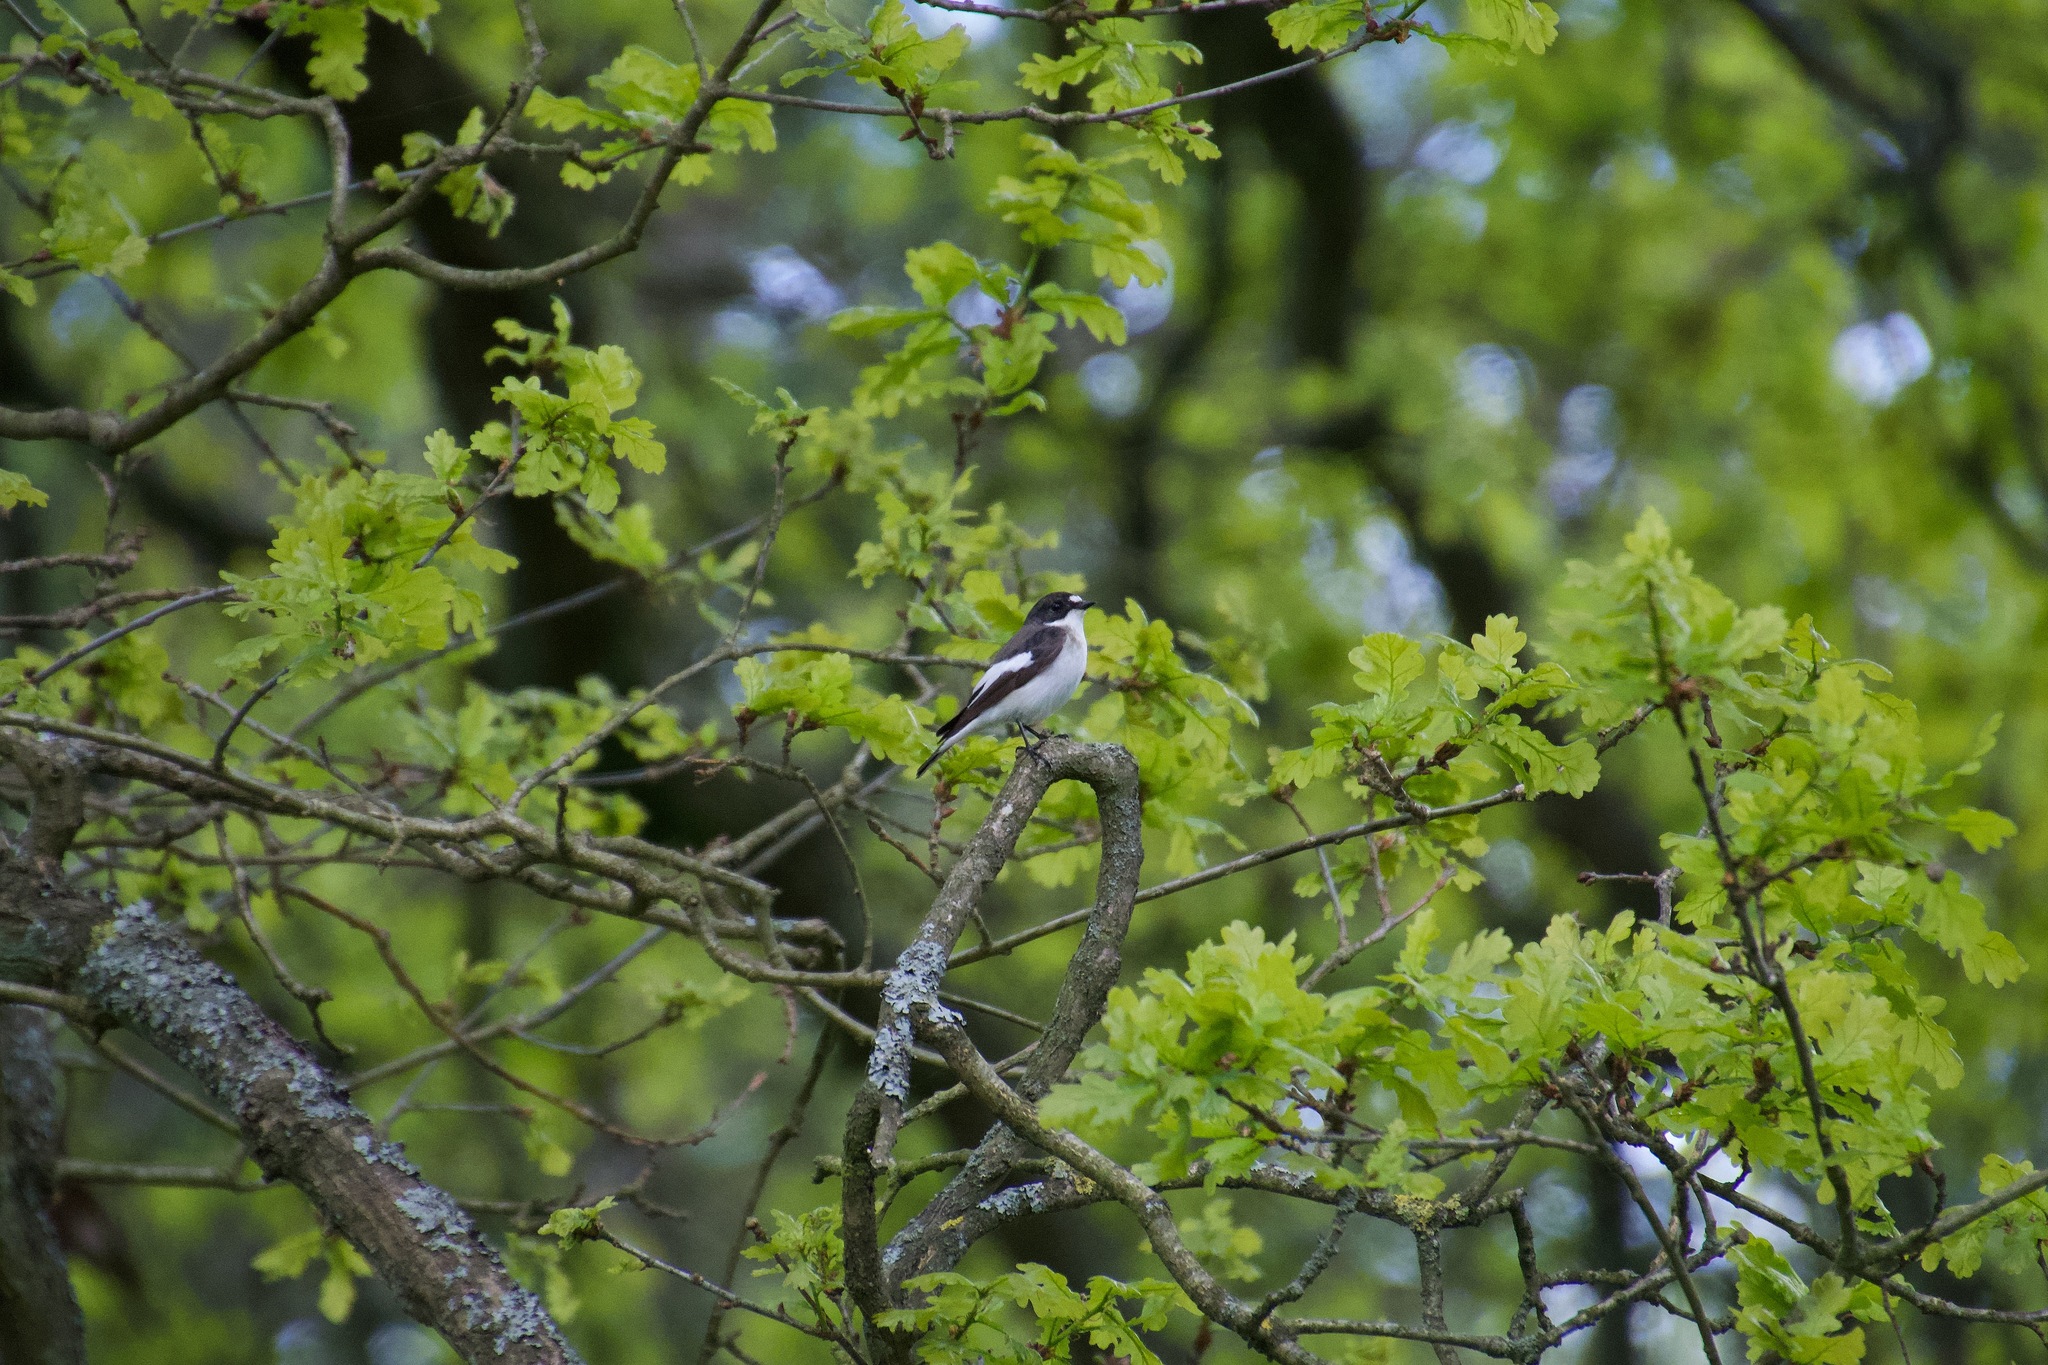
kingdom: Animalia
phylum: Chordata
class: Aves
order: Passeriformes
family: Muscicapidae
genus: Ficedula
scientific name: Ficedula hypoleuca
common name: European pied flycatcher
